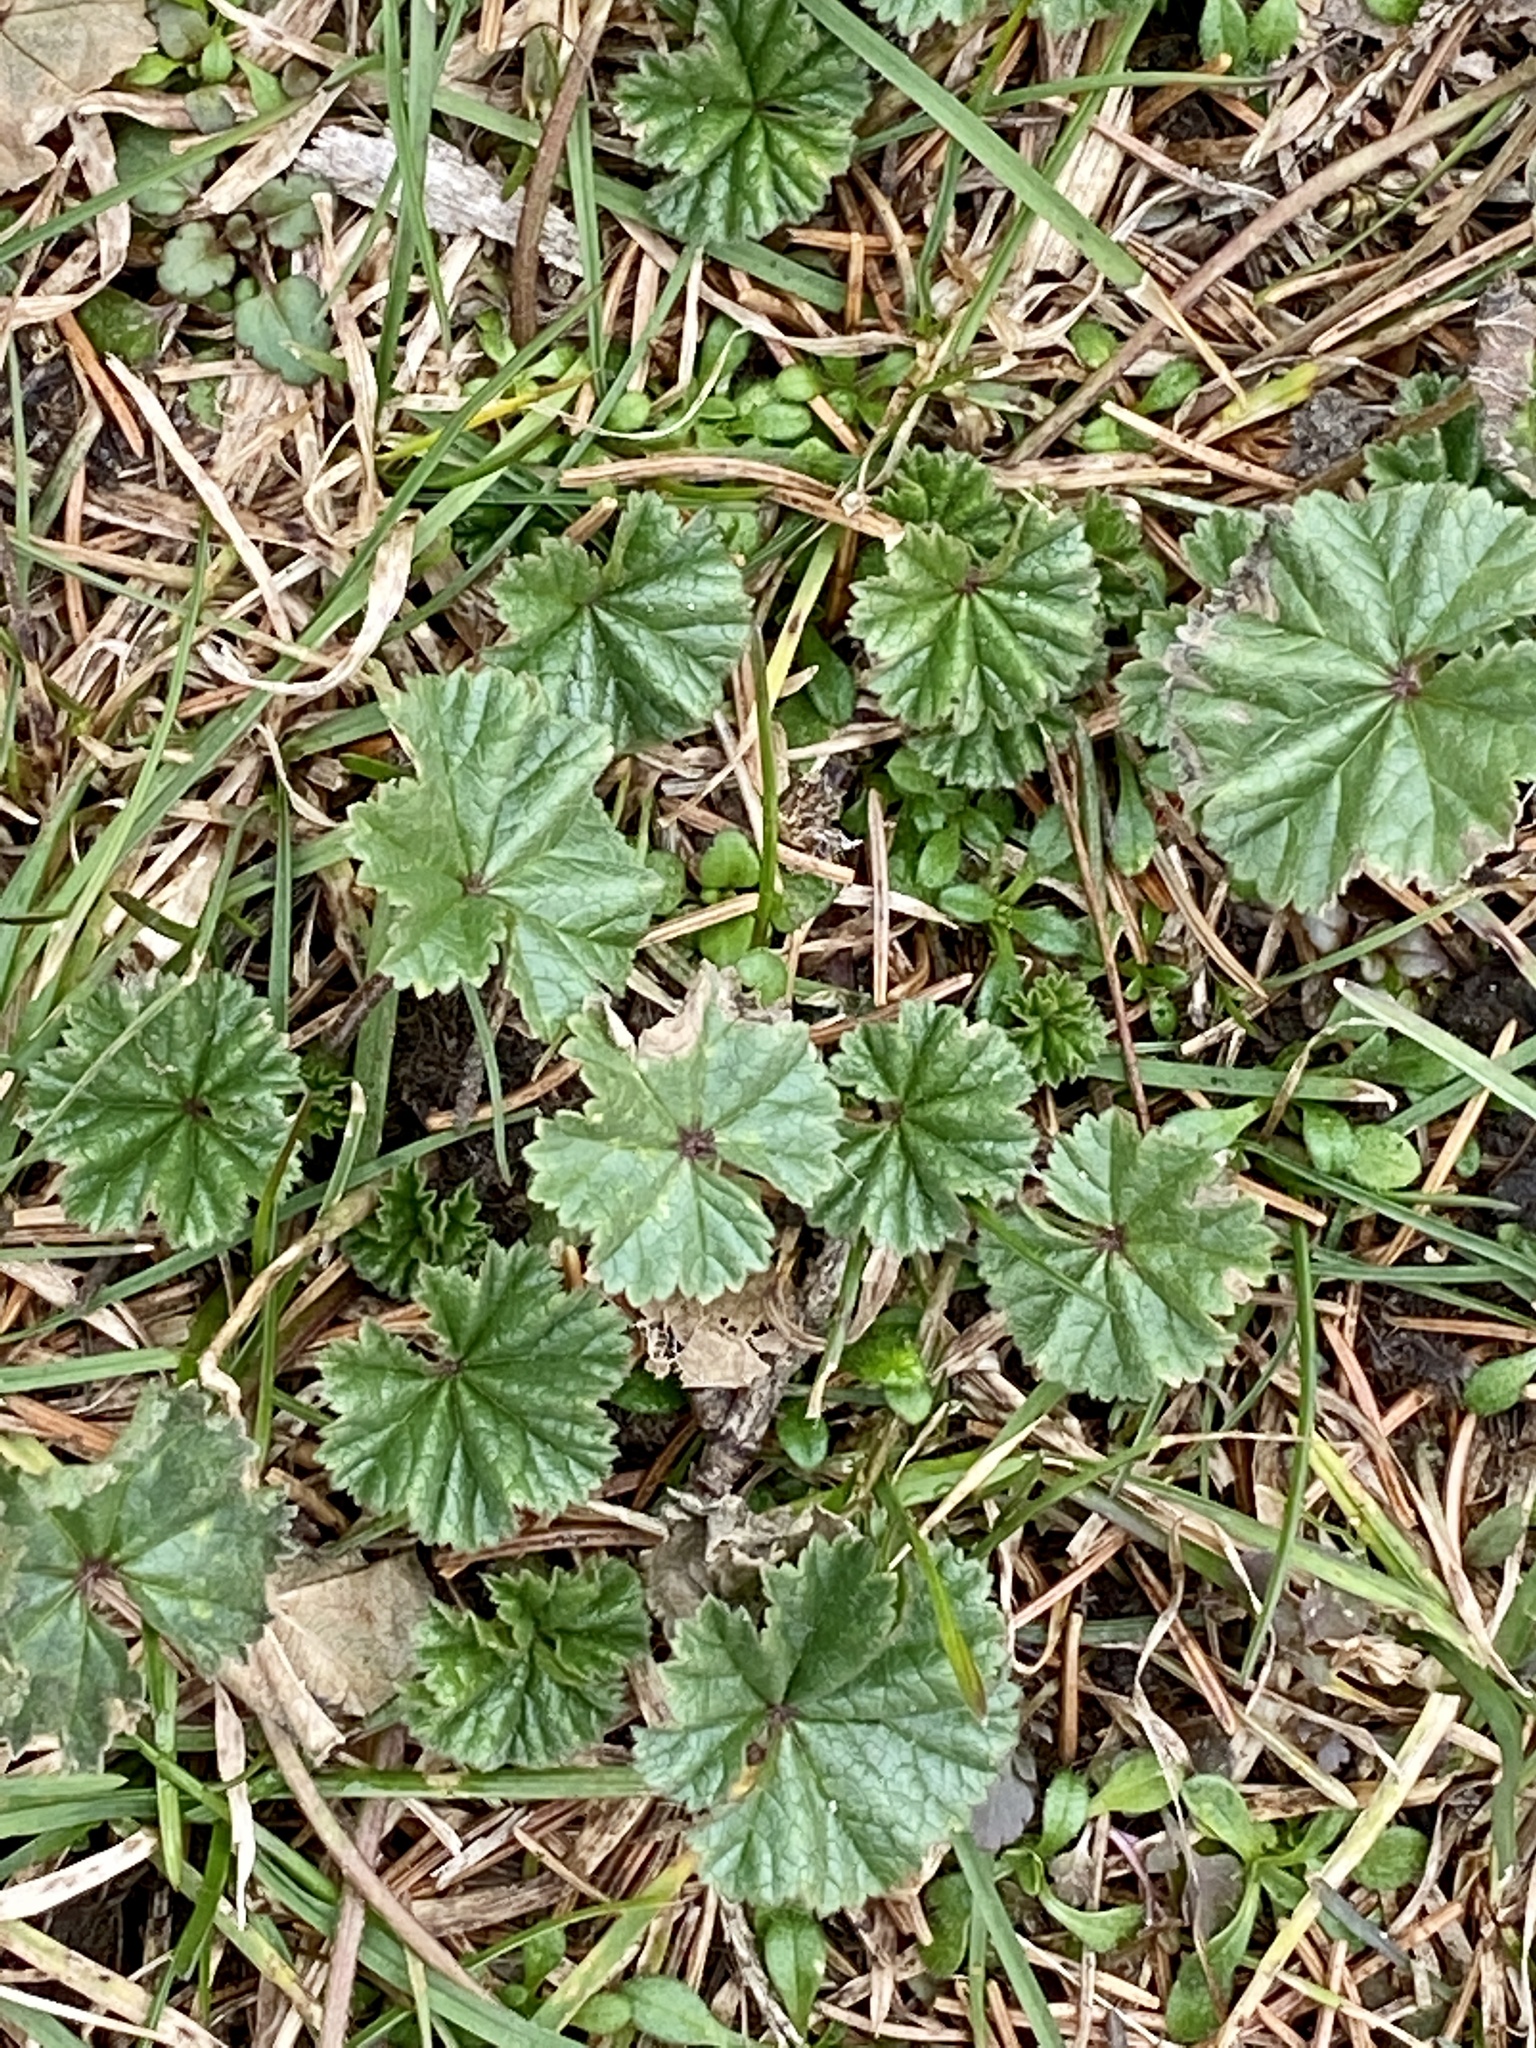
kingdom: Plantae
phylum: Tracheophyta
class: Magnoliopsida
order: Malvales
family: Malvaceae
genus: Malva
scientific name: Malva neglecta
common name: Common mallow
